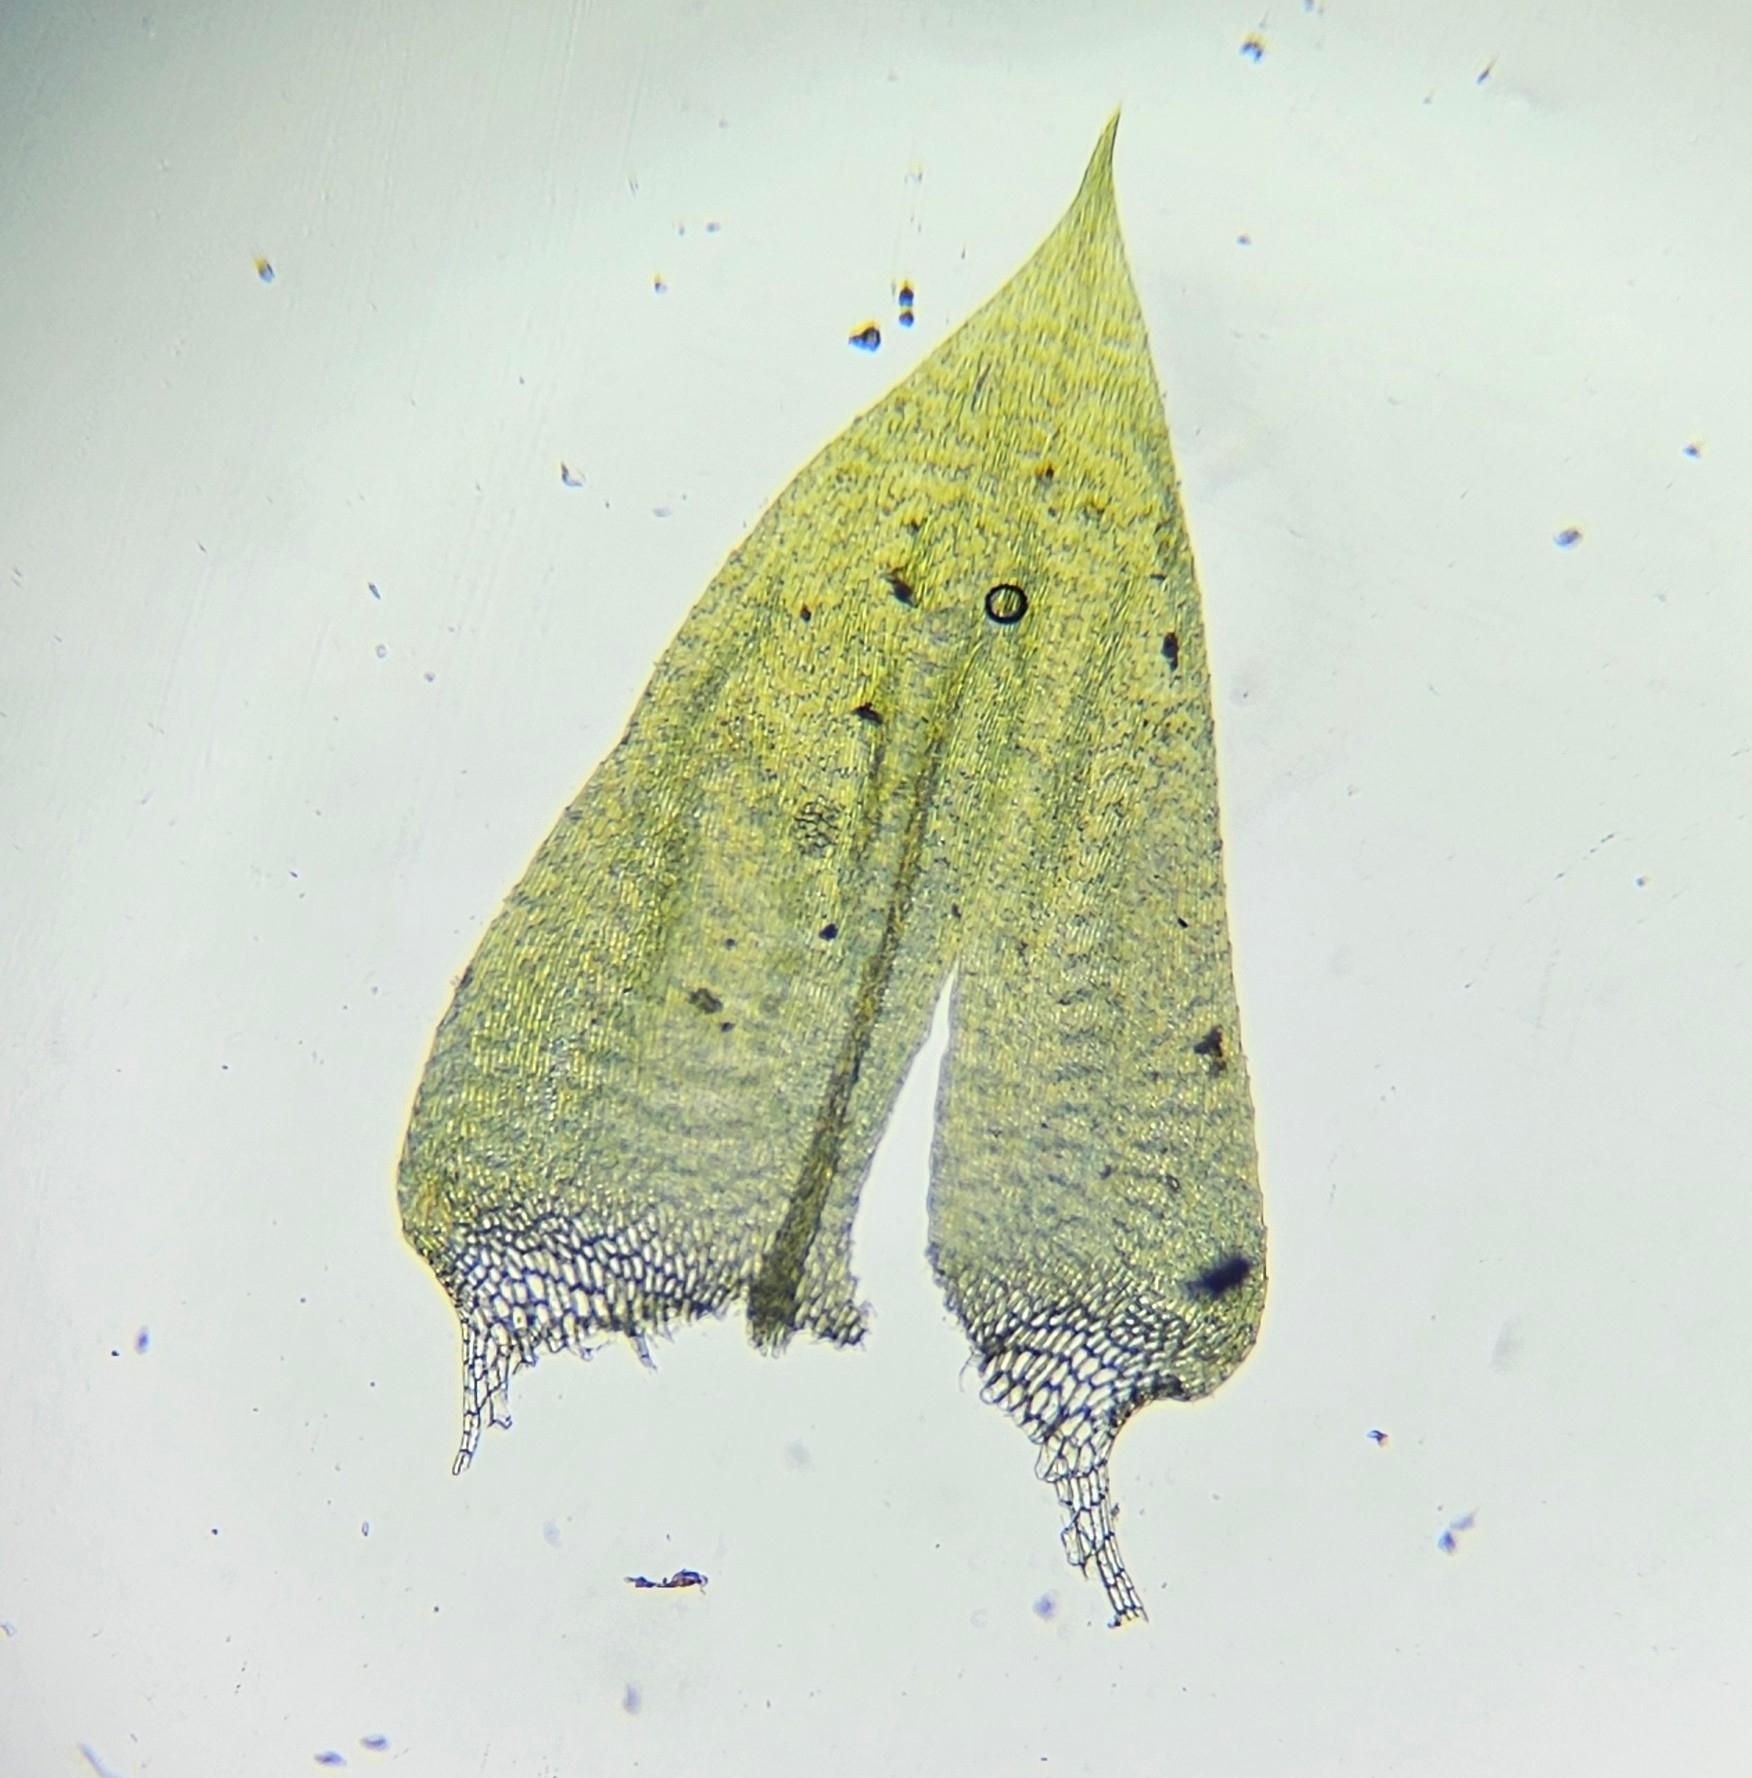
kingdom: Plantae
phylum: Bryophyta
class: Bryopsida
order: Hypnales
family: Brachytheciaceae
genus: Brachythecium
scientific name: Brachythecium rivulare
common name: River ragged moss
